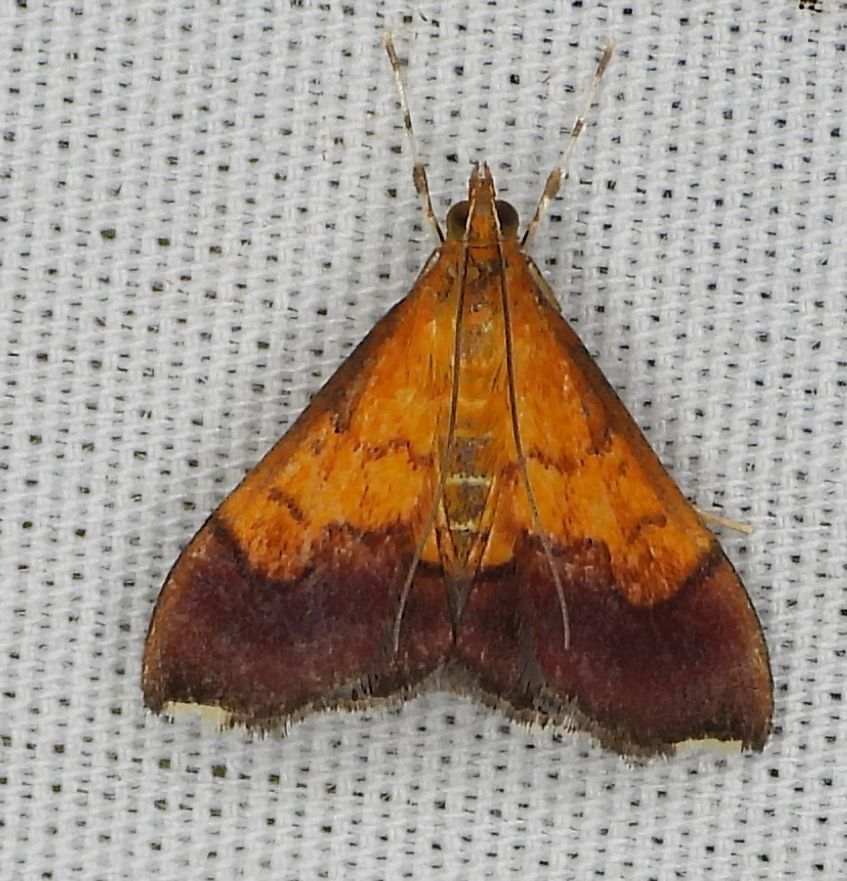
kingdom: Animalia
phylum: Arthropoda
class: Insecta
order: Lepidoptera
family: Crambidae
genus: Pyrausta
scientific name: Pyrausta bicoloralis
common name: Bicolored pyrausta moth
